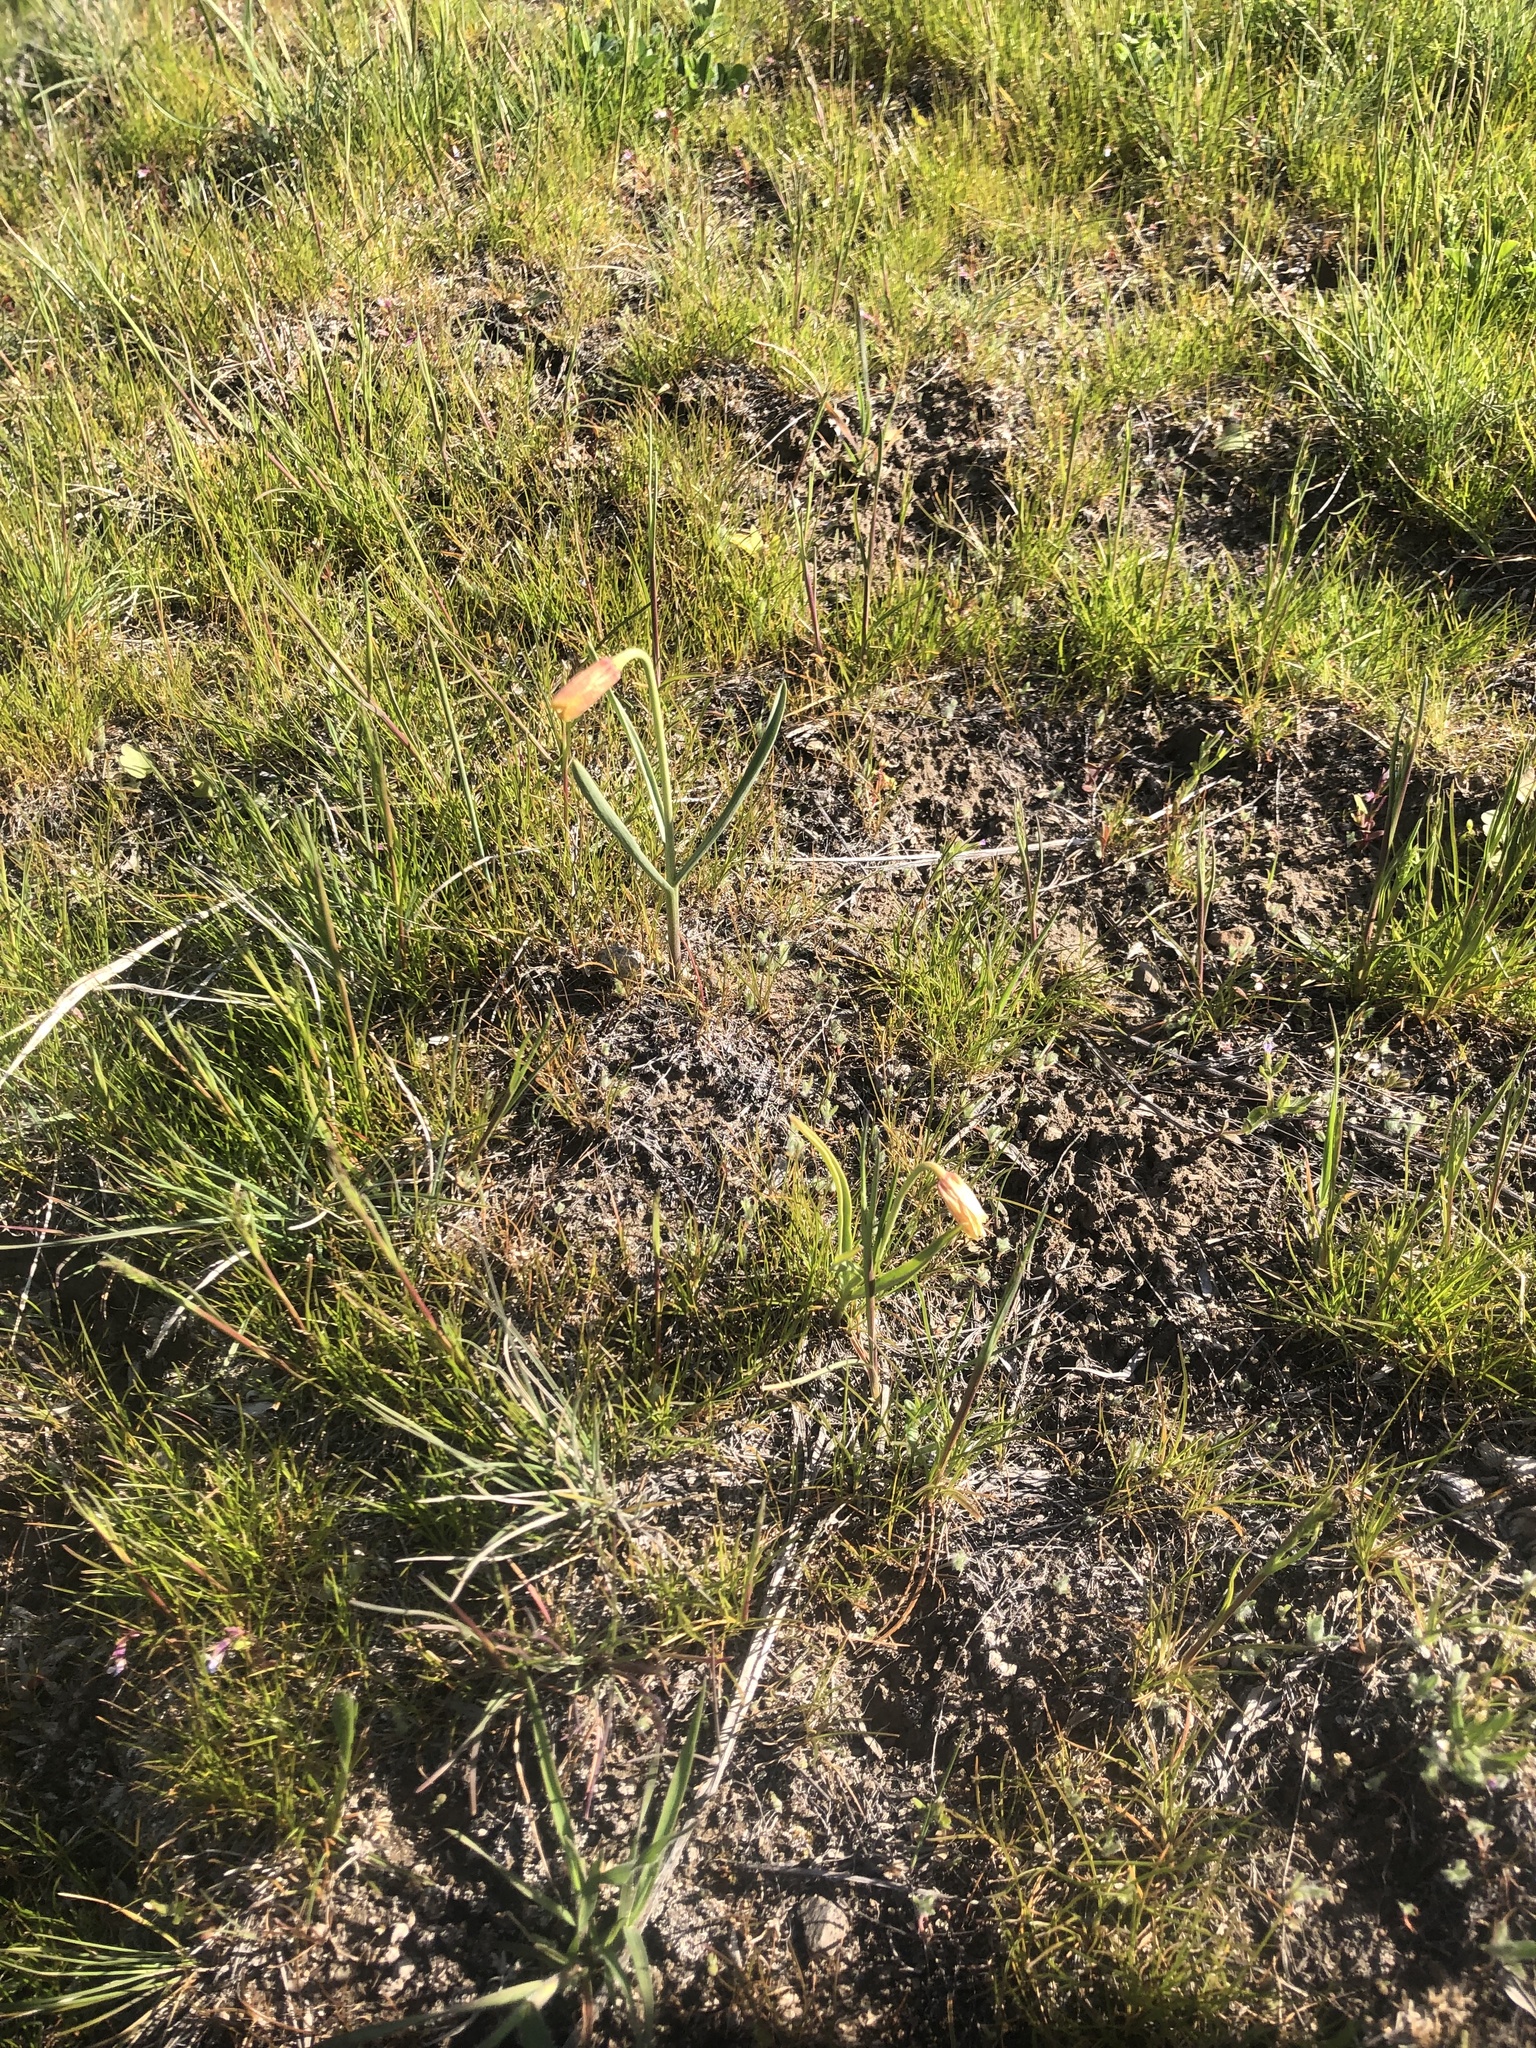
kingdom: Plantae
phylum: Tracheophyta
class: Liliopsida
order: Liliales
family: Liliaceae
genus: Fritillaria
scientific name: Fritillaria pudica
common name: Yellow fritillary
